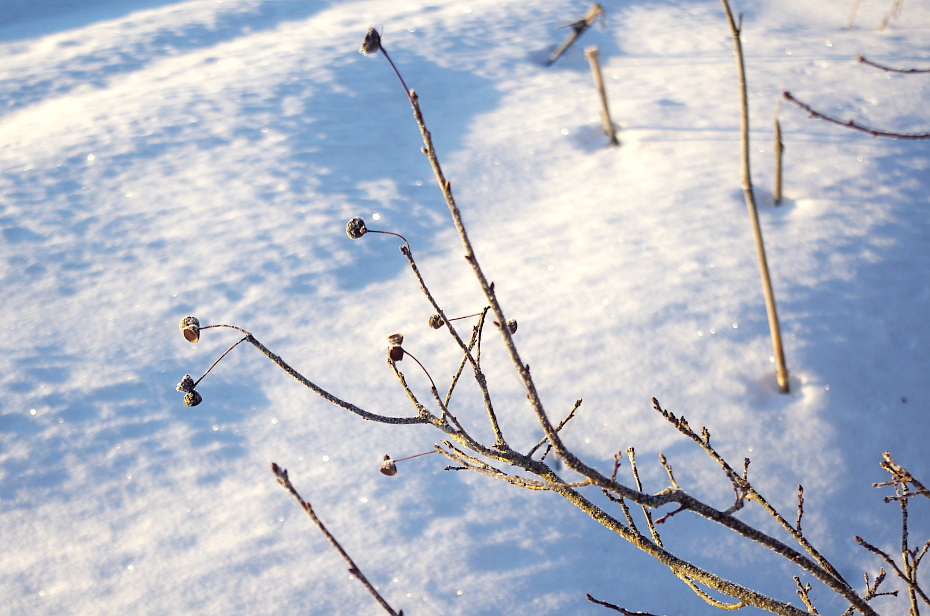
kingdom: Plantae
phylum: Tracheophyta
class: Magnoliopsida
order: Fagales
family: Fagaceae
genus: Quercus
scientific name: Quercus robur
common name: Pedunculate oak
